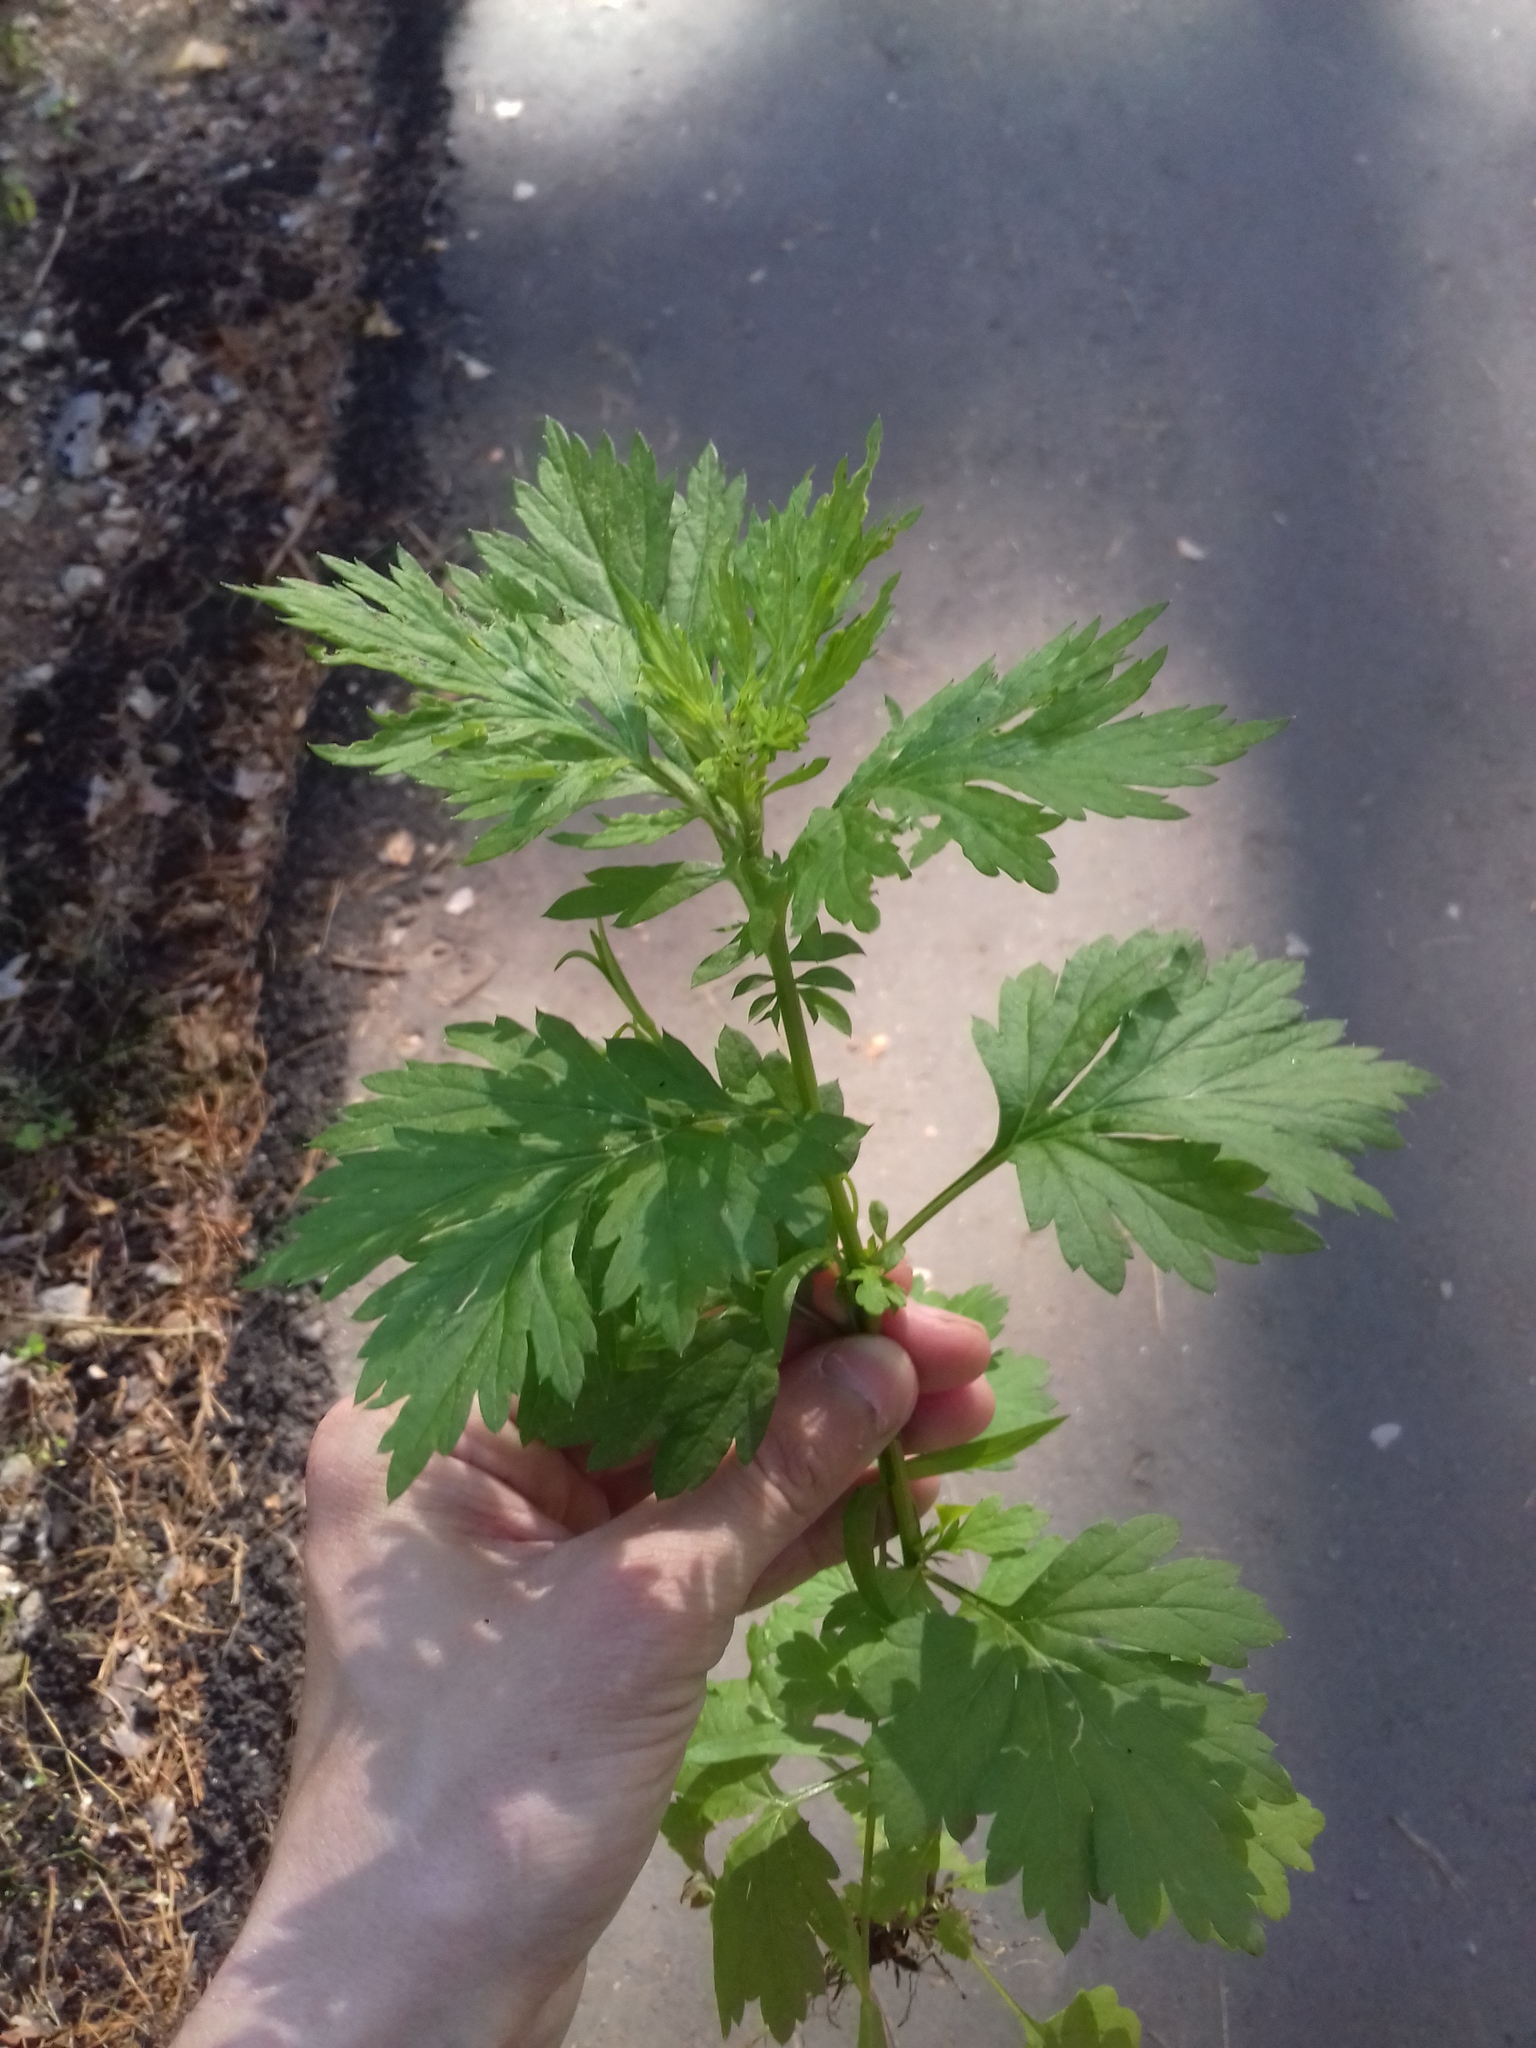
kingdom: Plantae
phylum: Tracheophyta
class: Magnoliopsida
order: Asterales
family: Asteraceae
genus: Artemisia
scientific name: Artemisia vulgaris
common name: Mugwort
